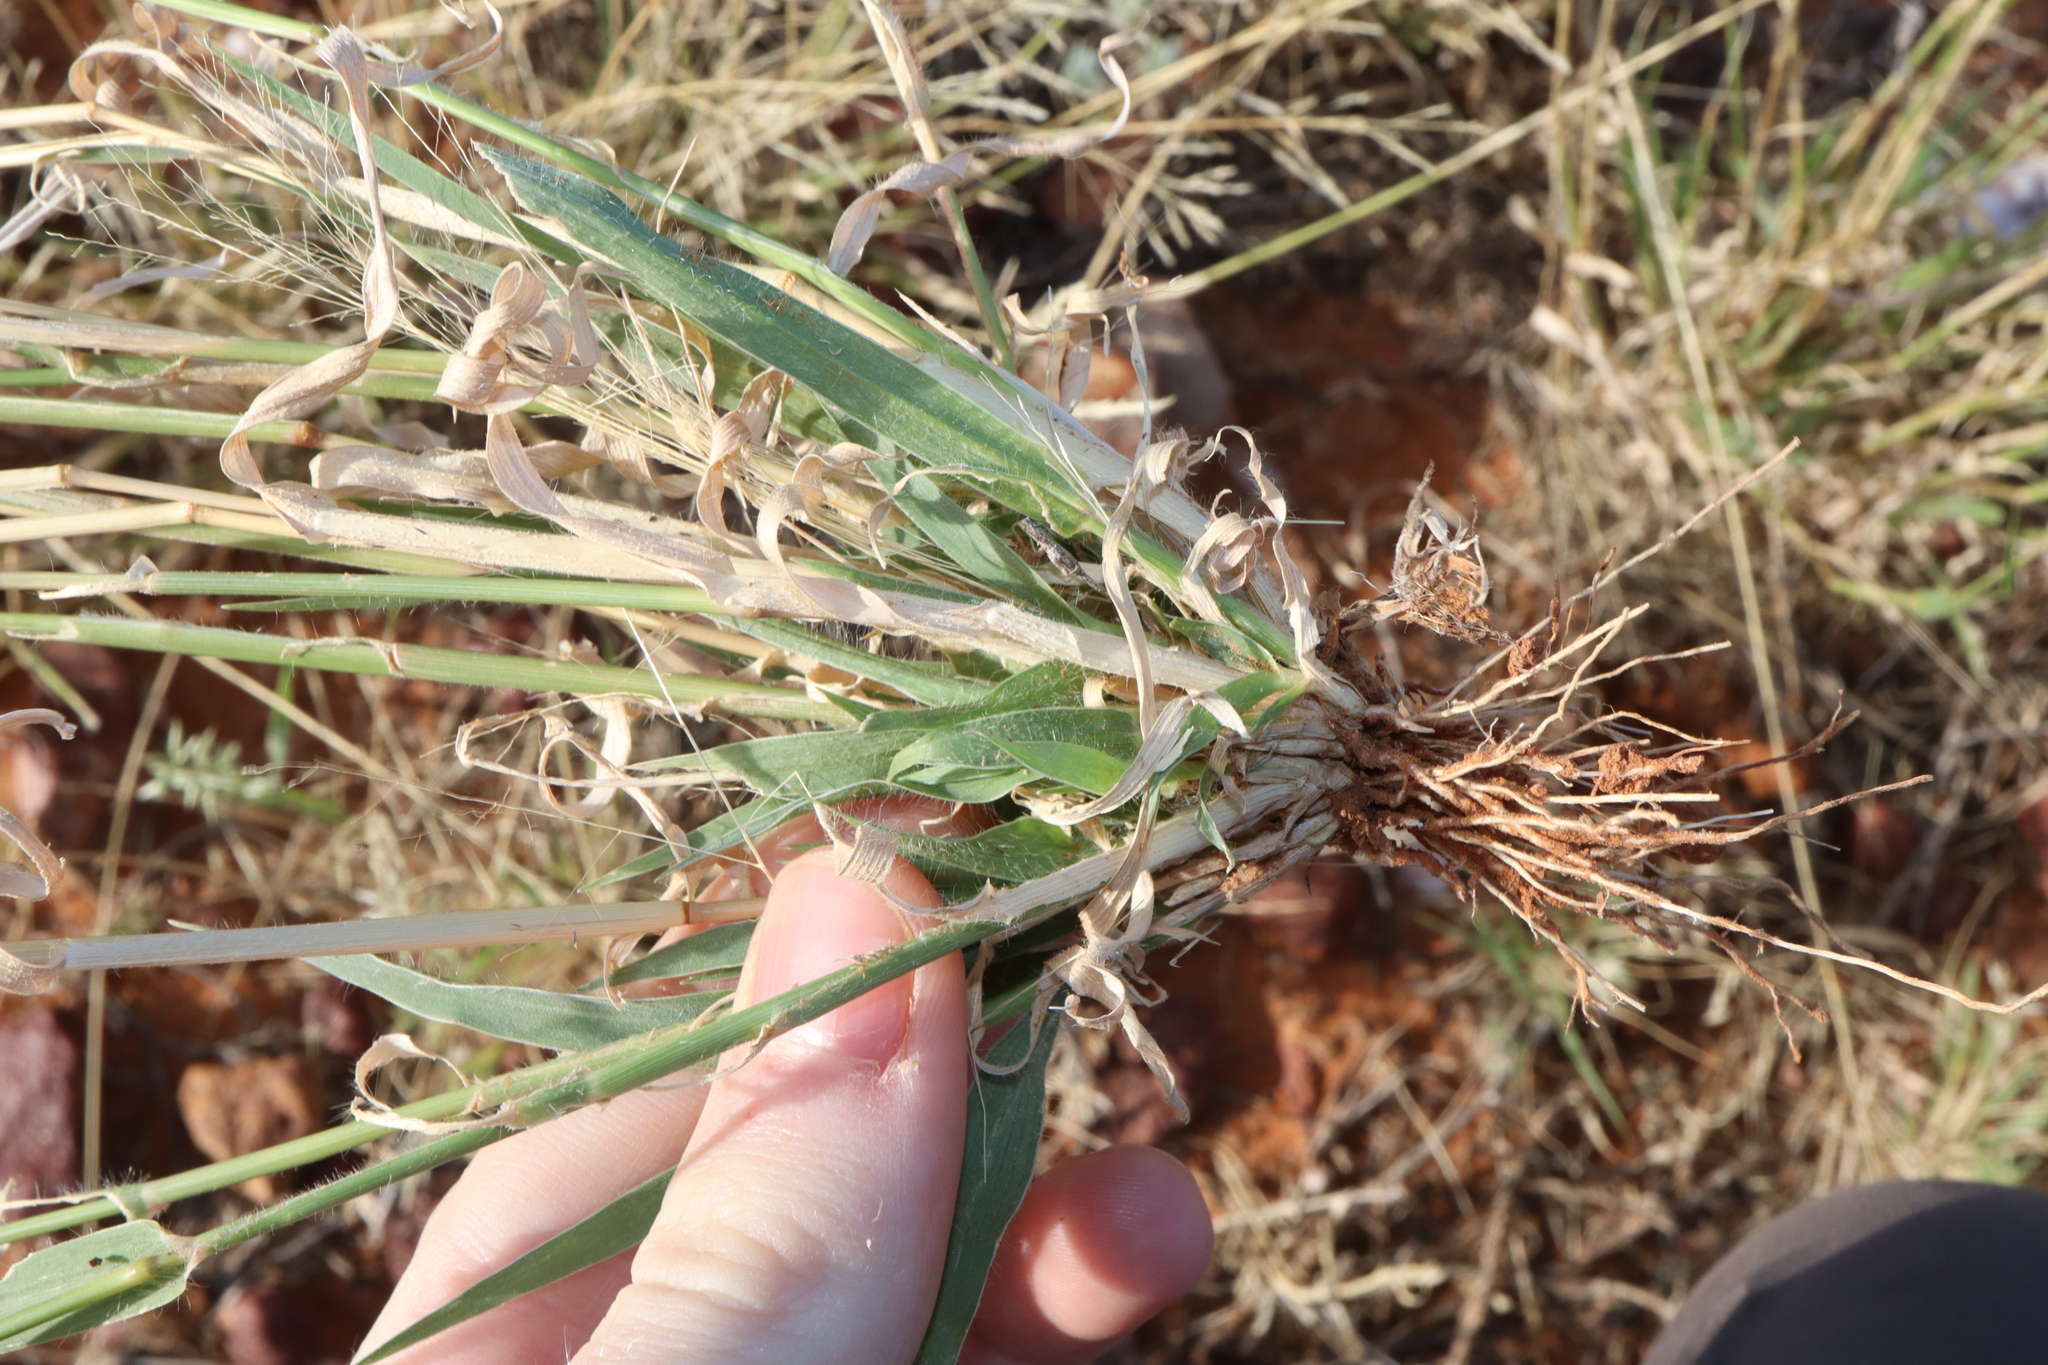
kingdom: Plantae
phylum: Tracheophyta
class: Liliopsida
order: Poales
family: Poaceae
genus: Sporobolus
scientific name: Sporobolus caroli
